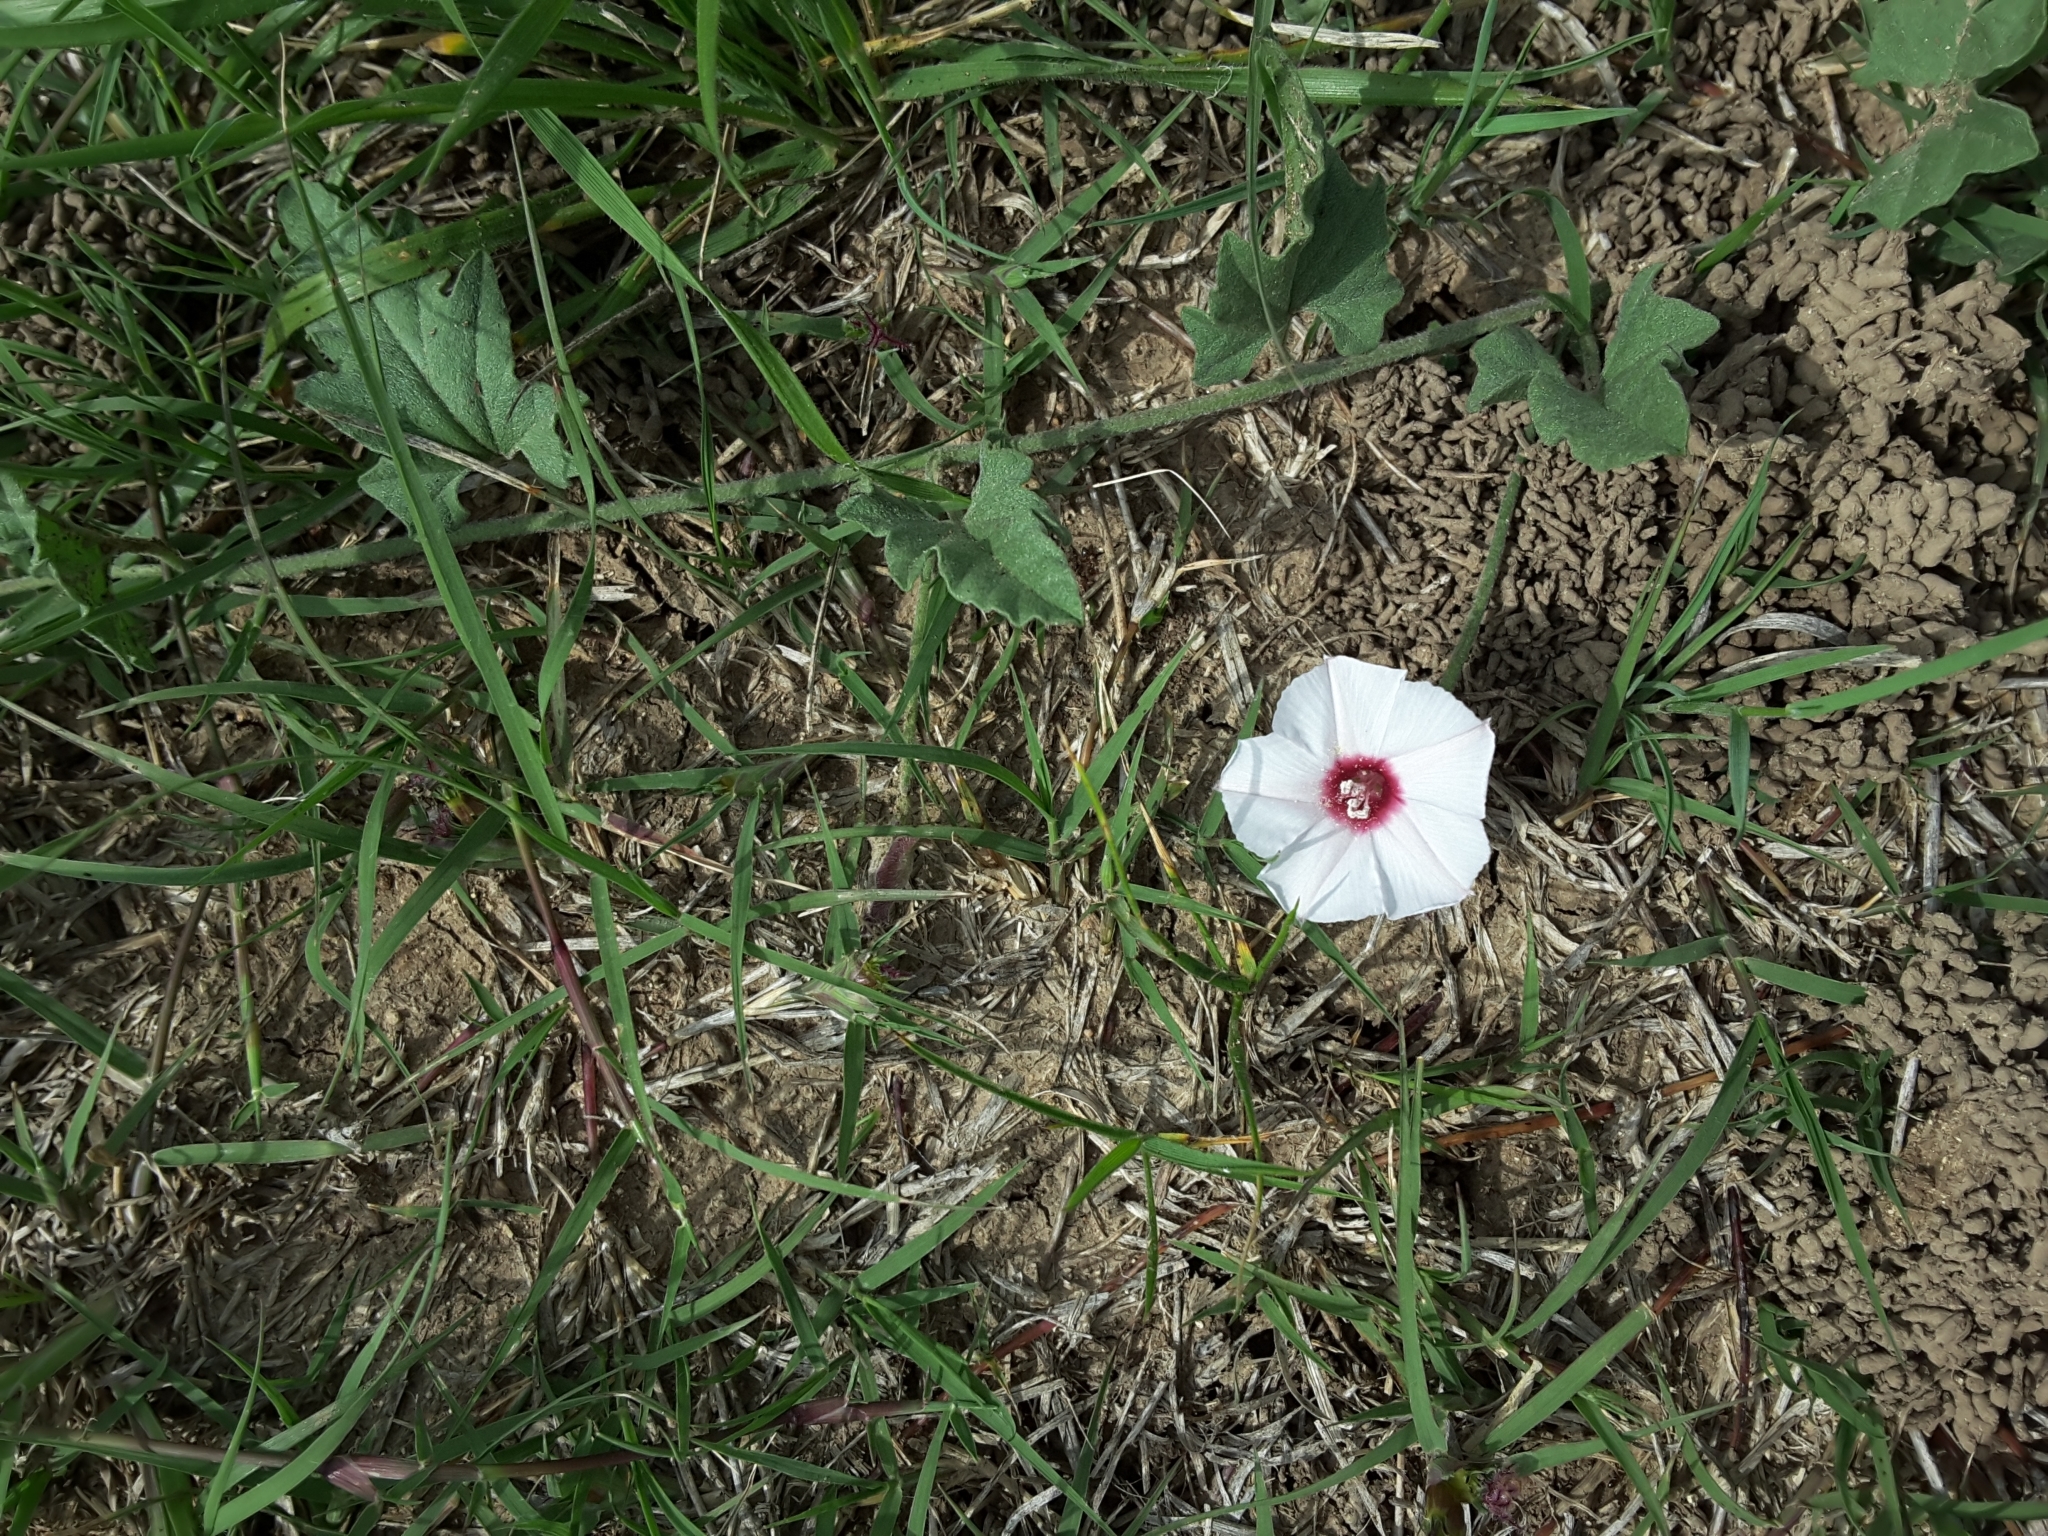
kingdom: Plantae
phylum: Tracheophyta
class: Magnoliopsida
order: Solanales
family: Convolvulaceae
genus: Convolvulus
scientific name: Convolvulus equitans
